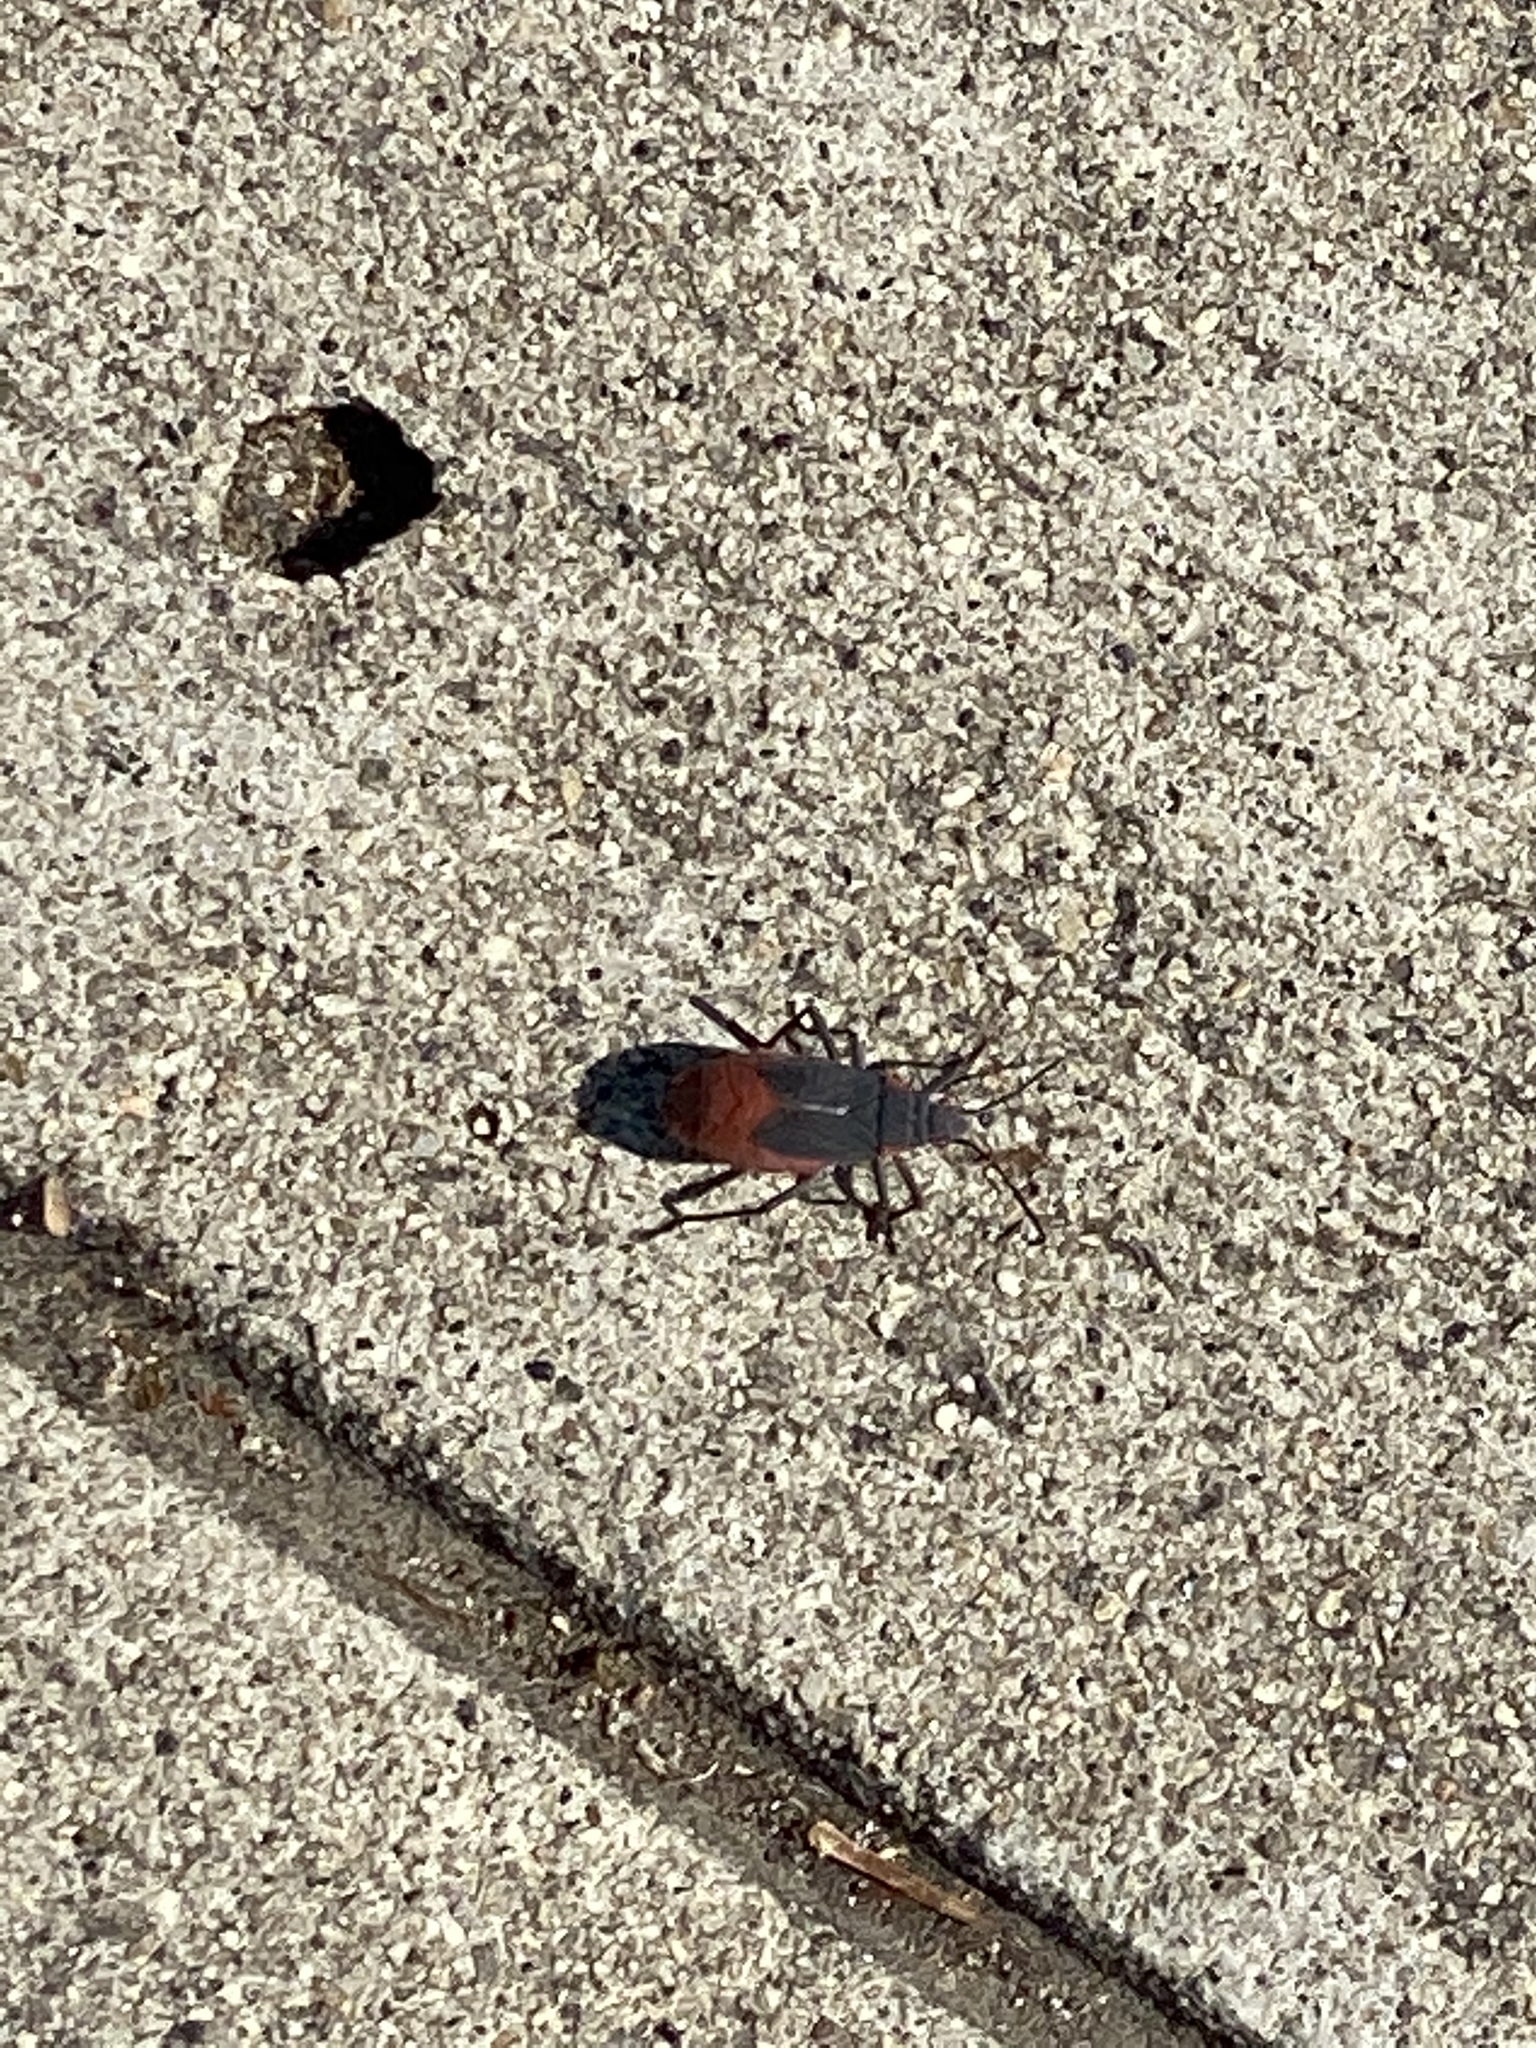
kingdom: Animalia
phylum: Arthropoda
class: Insecta
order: Hemiptera
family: Rhopalidae
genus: Jadera
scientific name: Jadera haematoloma
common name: Red-shouldered bug
